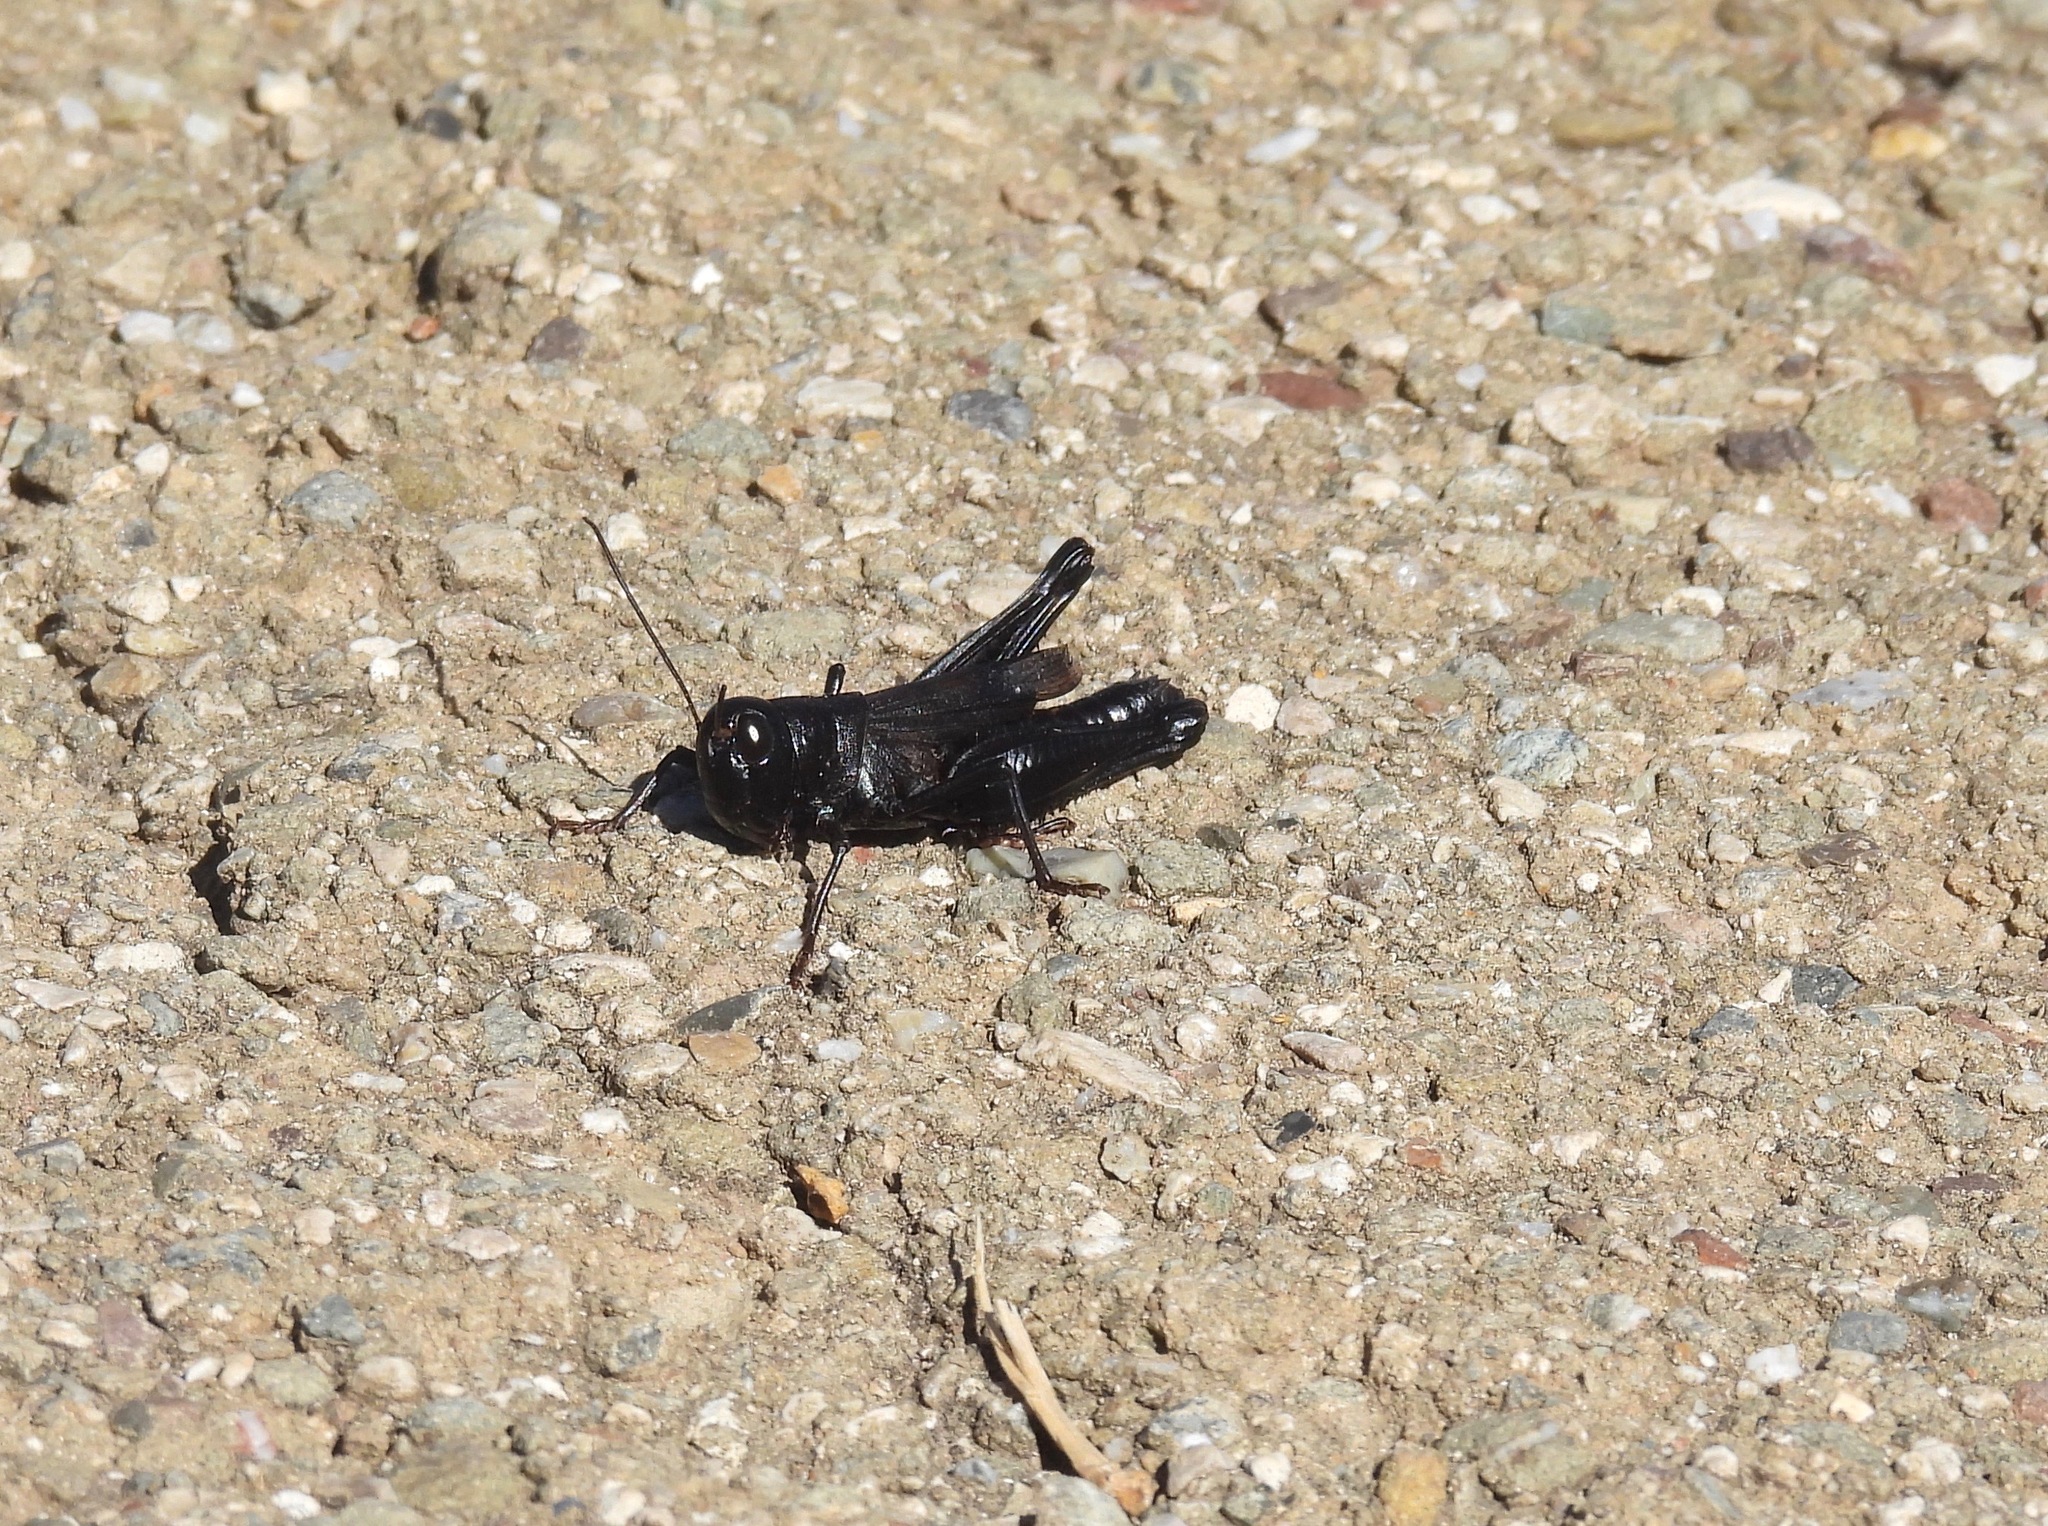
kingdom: Animalia
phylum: Arthropoda
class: Insecta
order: Orthoptera
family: Acrididae
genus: Boopedon
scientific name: Boopedon nubilum
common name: Ebony grasshopper
